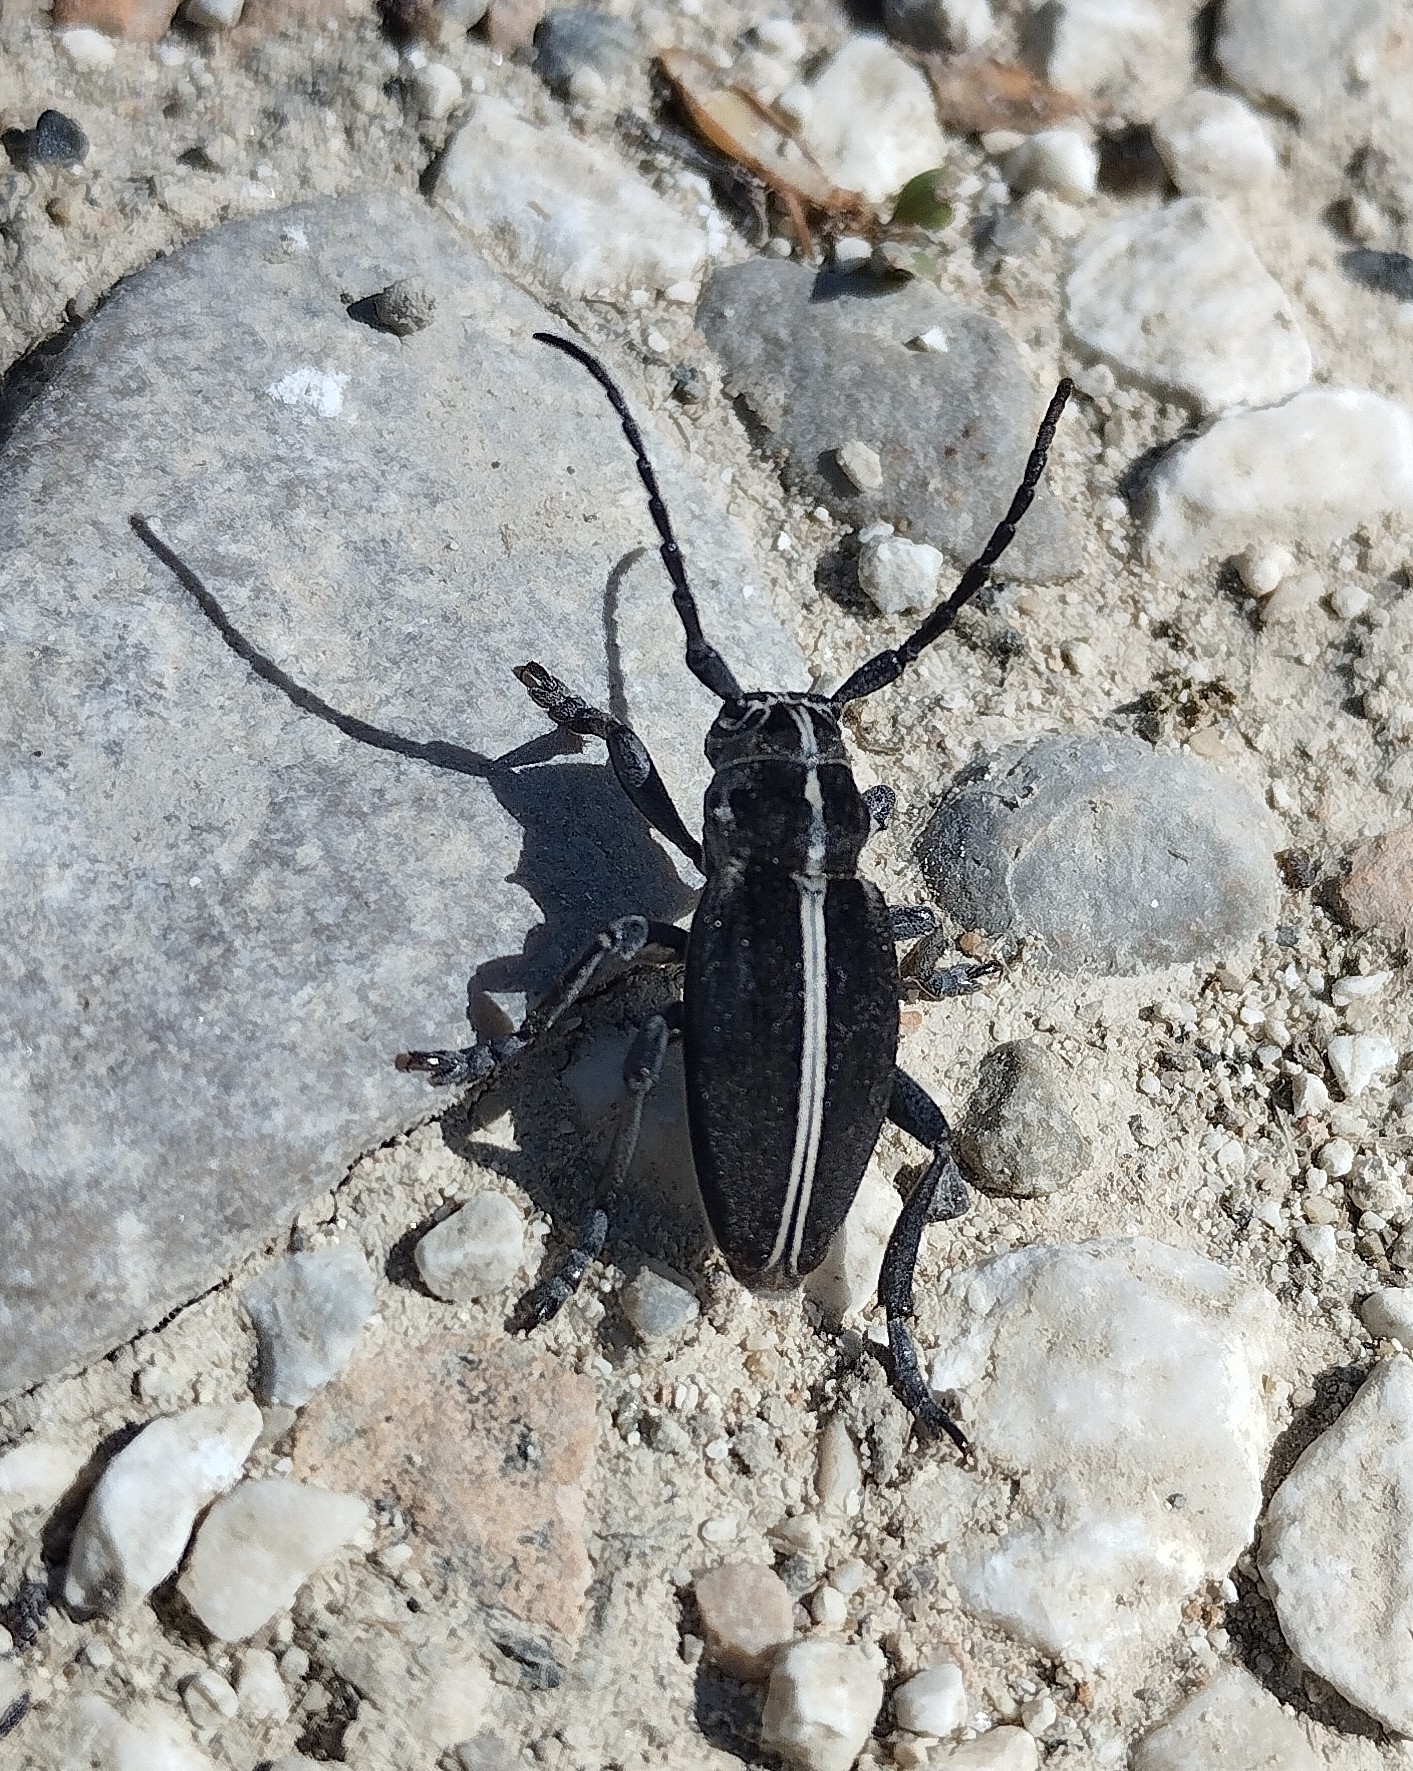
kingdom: Animalia
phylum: Arthropoda
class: Insecta
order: Coleoptera
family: Cerambycidae
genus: Dorcadion
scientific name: Dorcadion arenarium
